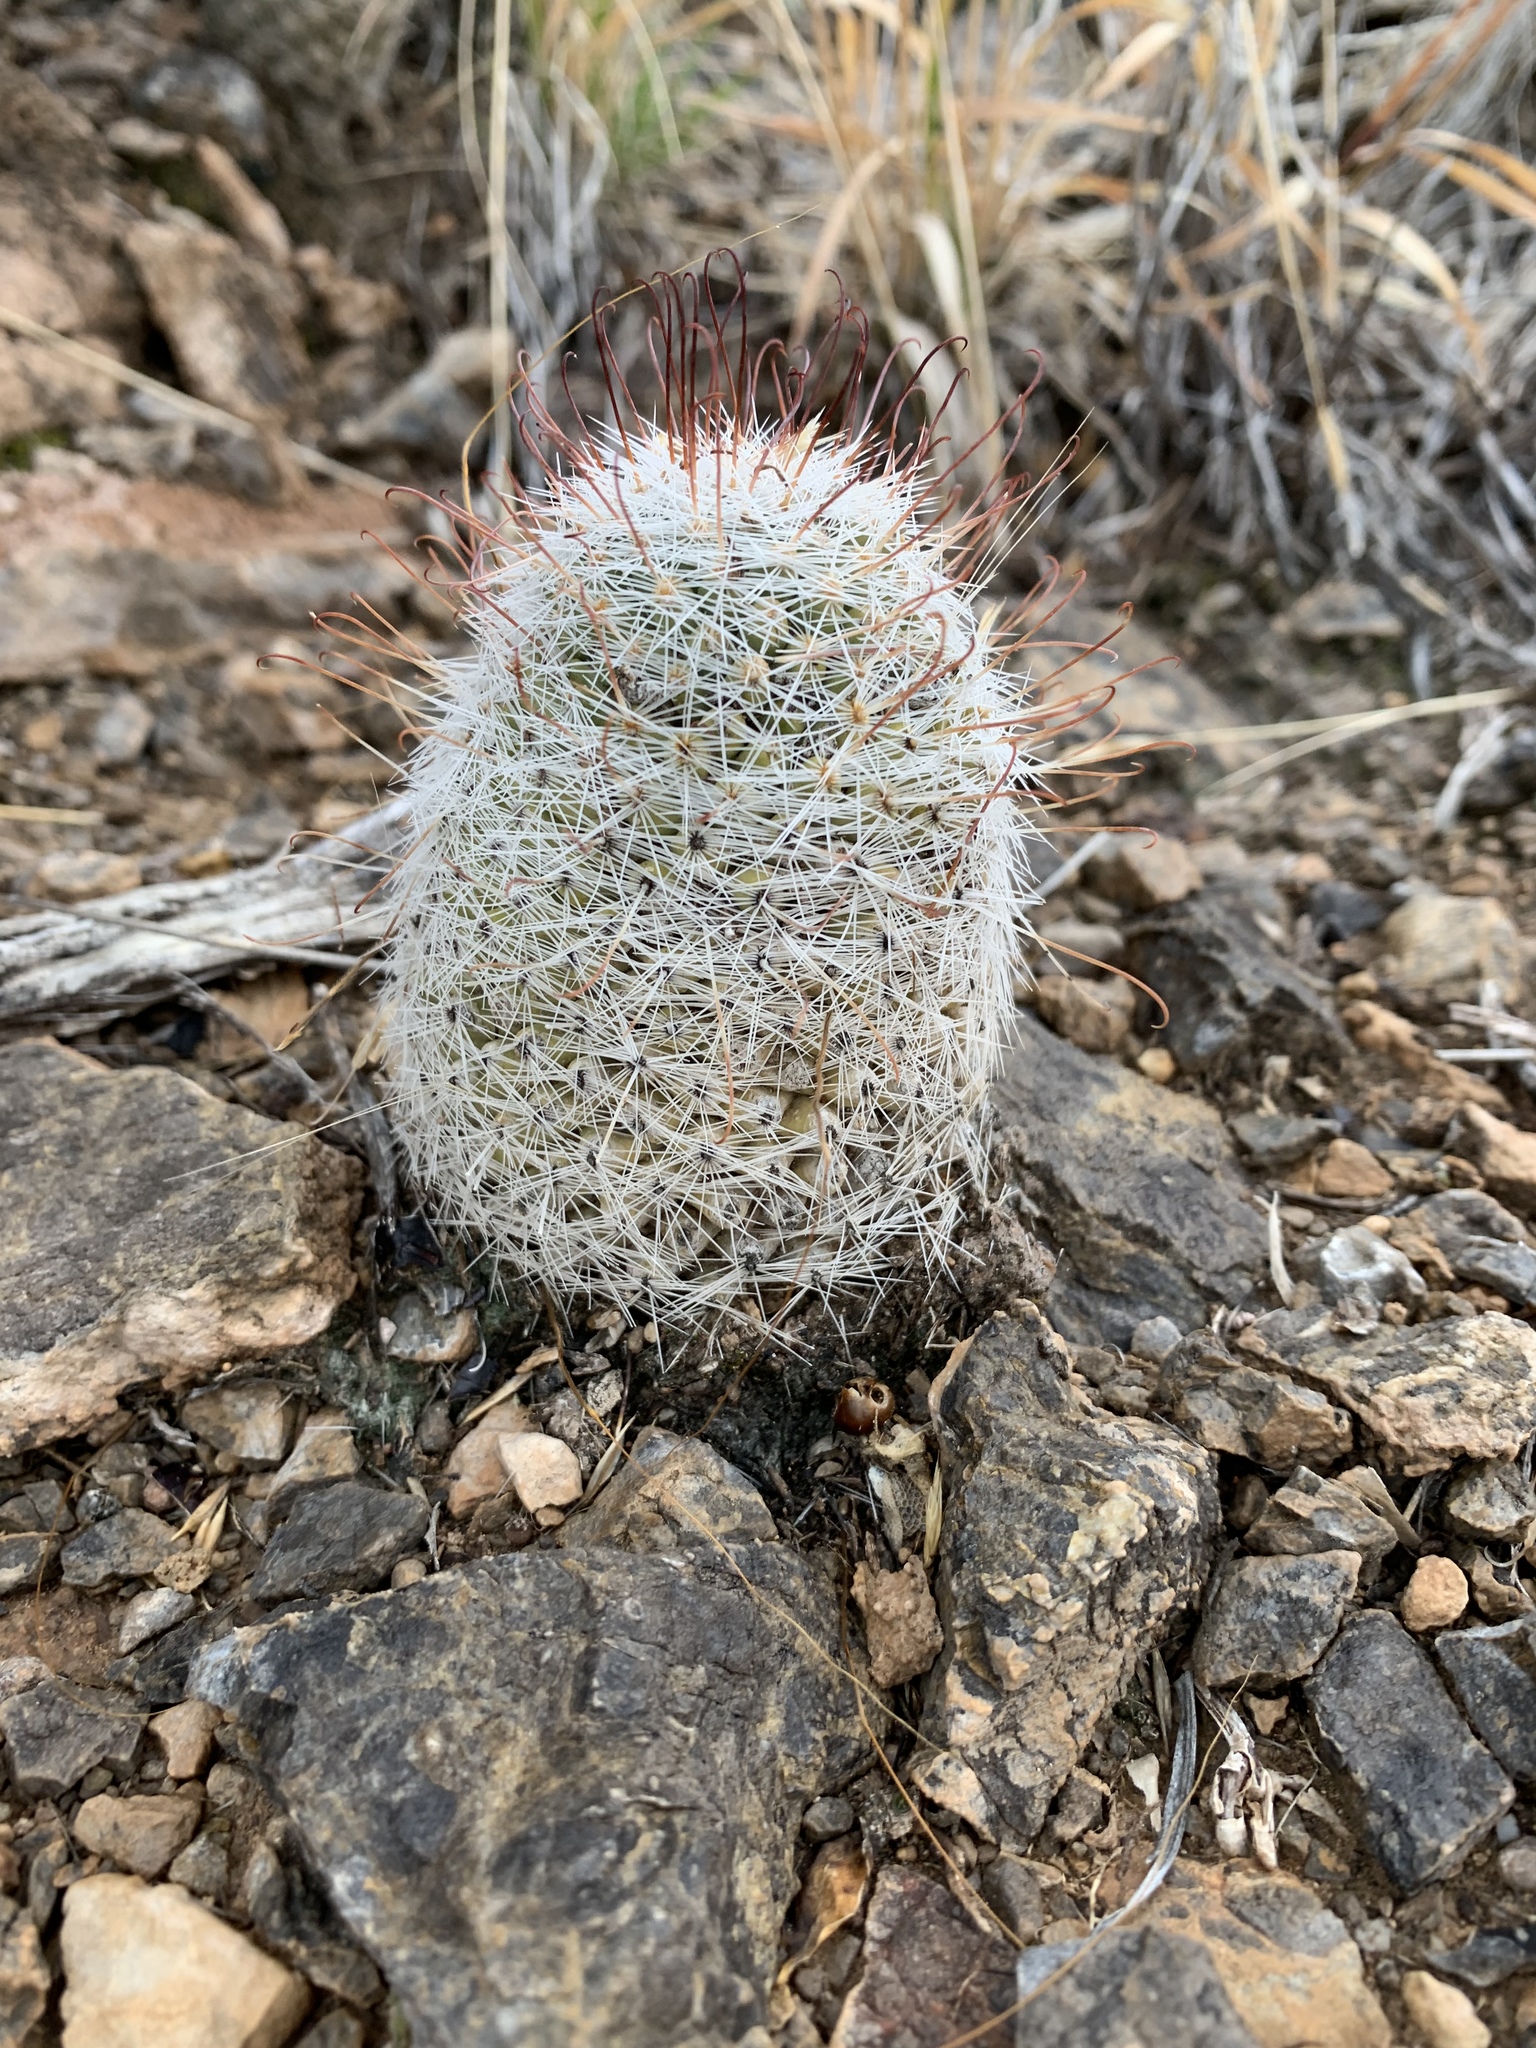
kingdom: Plantae
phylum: Tracheophyta
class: Magnoliopsida
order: Caryophyllales
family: Cactaceae
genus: Cochemiea
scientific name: Cochemiea grahamii
